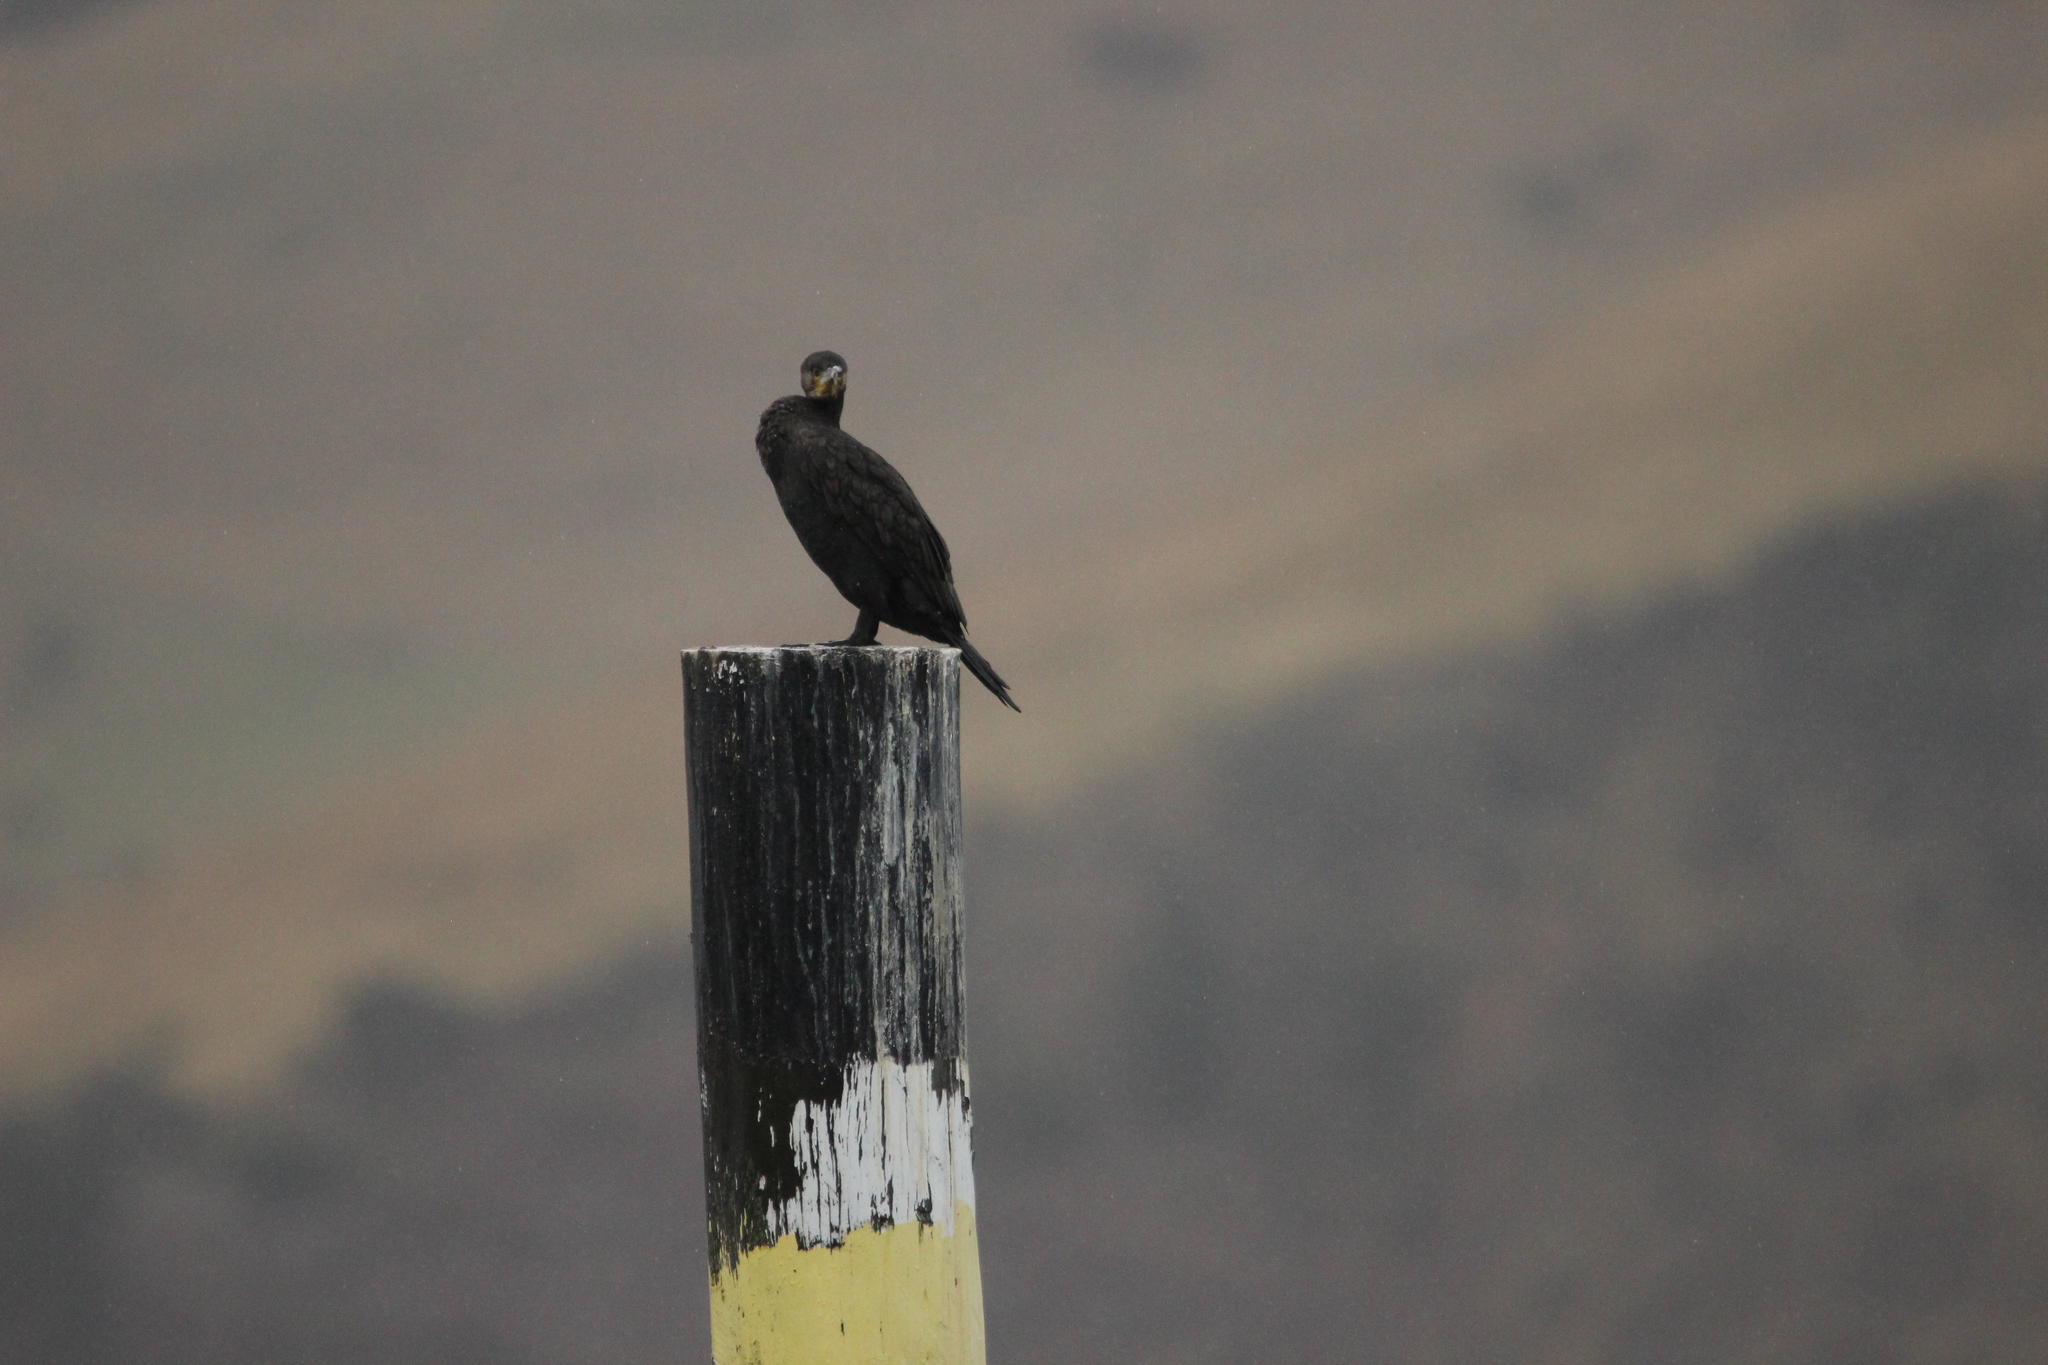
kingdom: Animalia
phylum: Chordata
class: Aves
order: Suliformes
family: Phalacrocoracidae
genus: Phalacrocorax
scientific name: Phalacrocorax carbo
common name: Great cormorant
